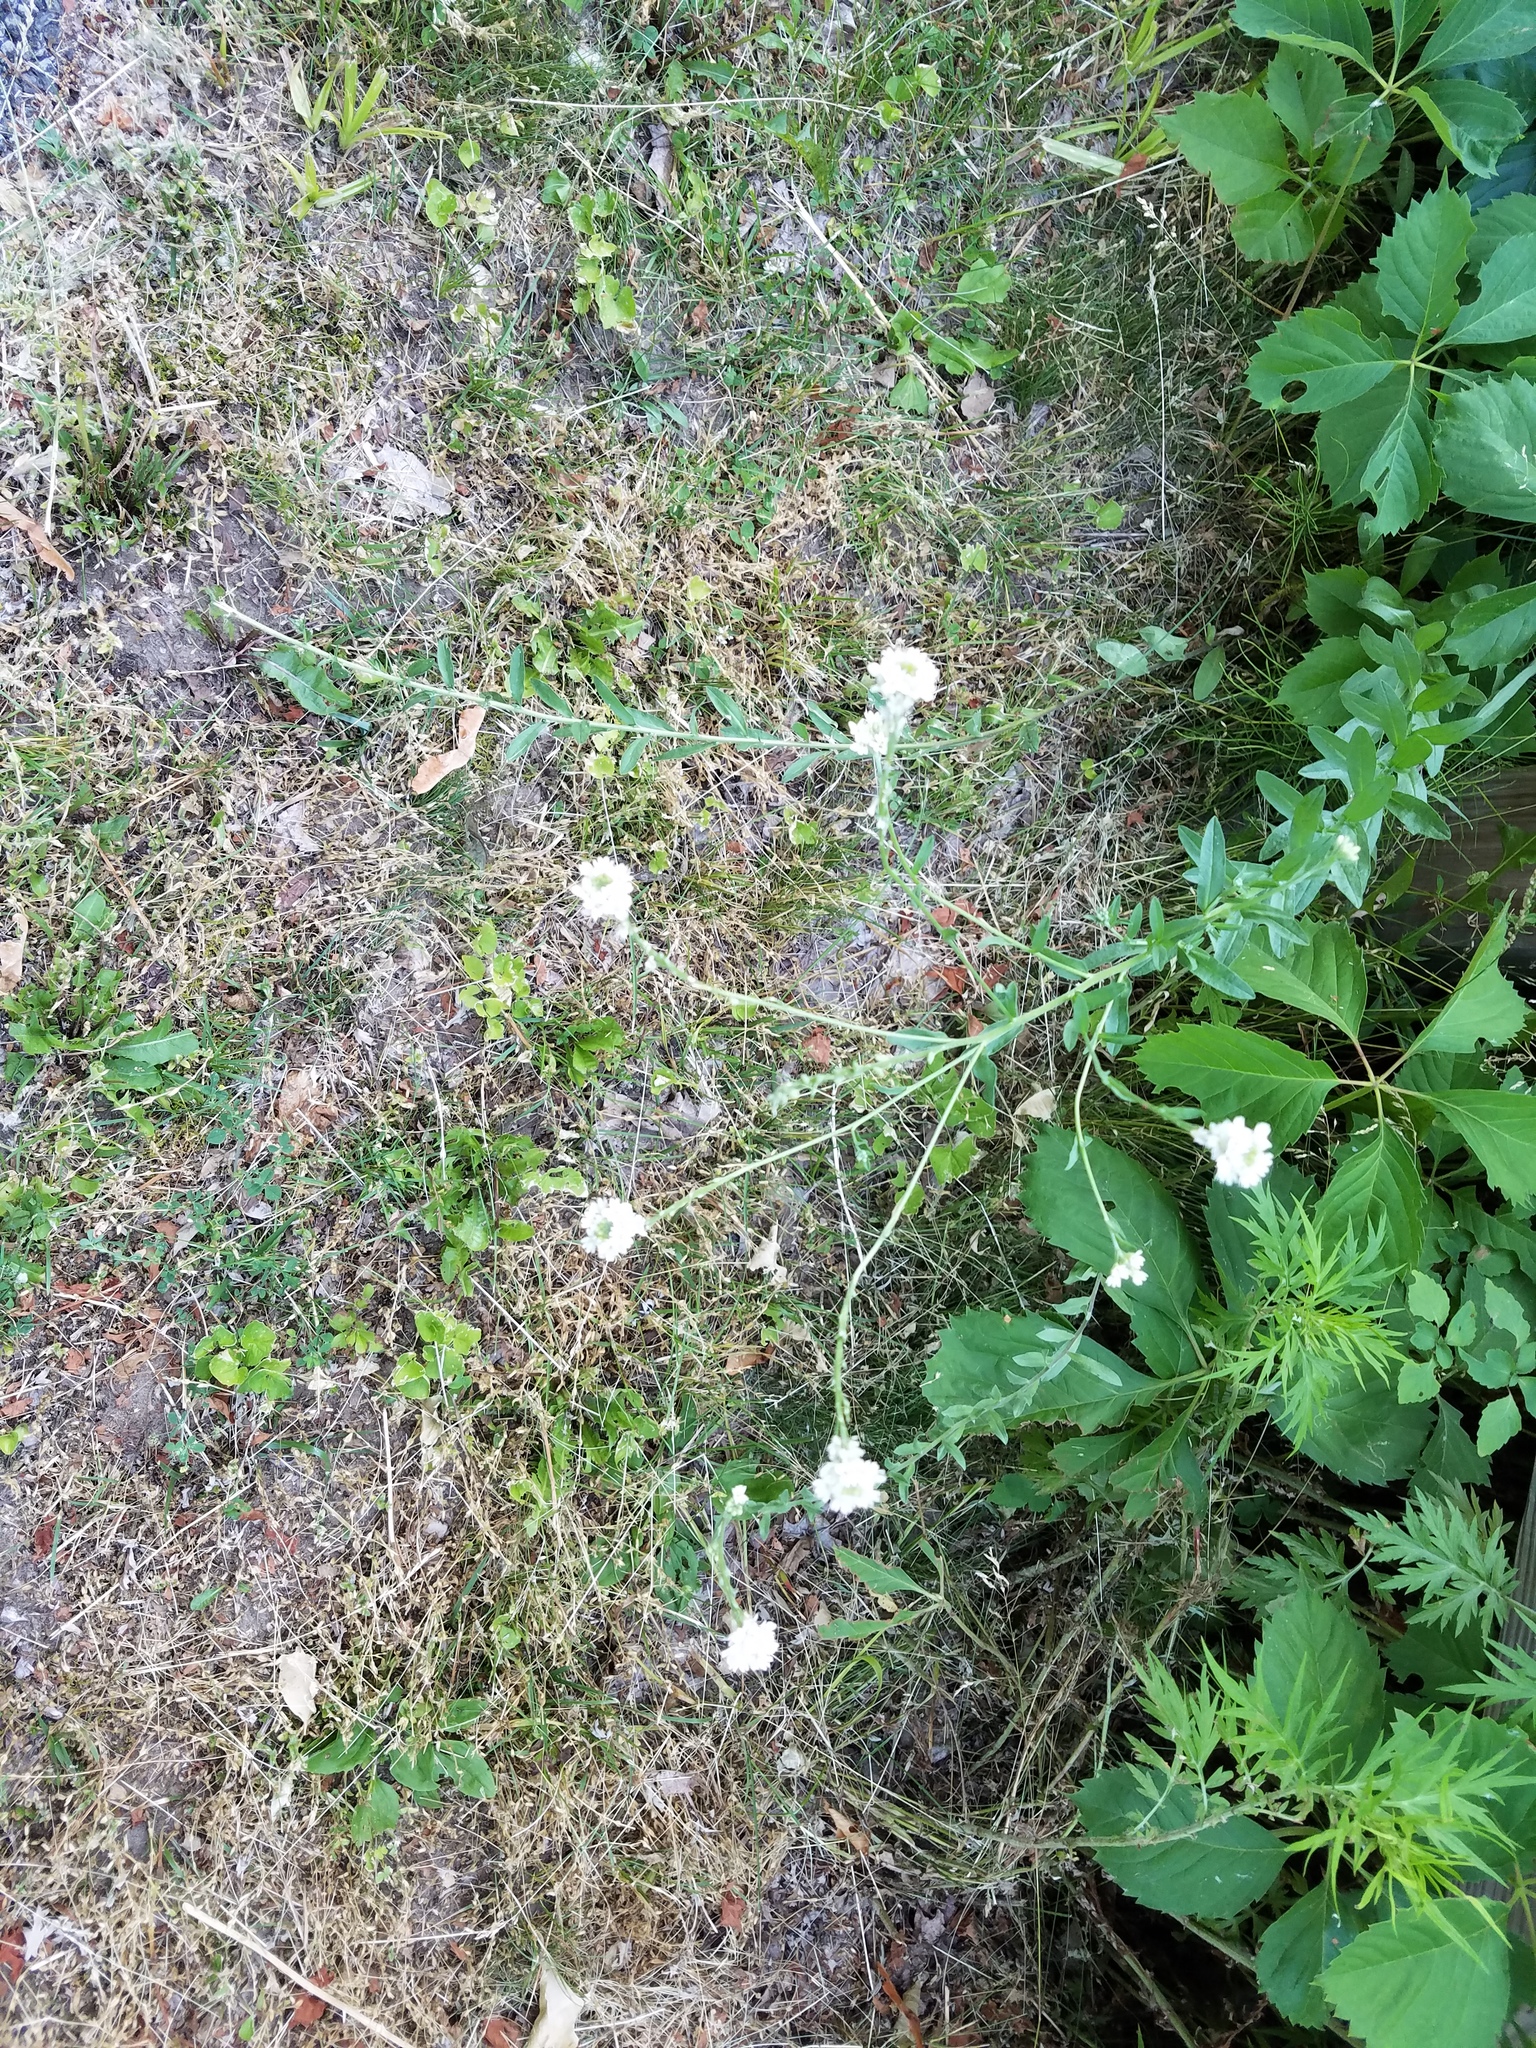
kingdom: Plantae
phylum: Tracheophyta
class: Magnoliopsida
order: Brassicales
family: Brassicaceae
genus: Berteroa
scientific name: Berteroa incana
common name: Hoary alison
